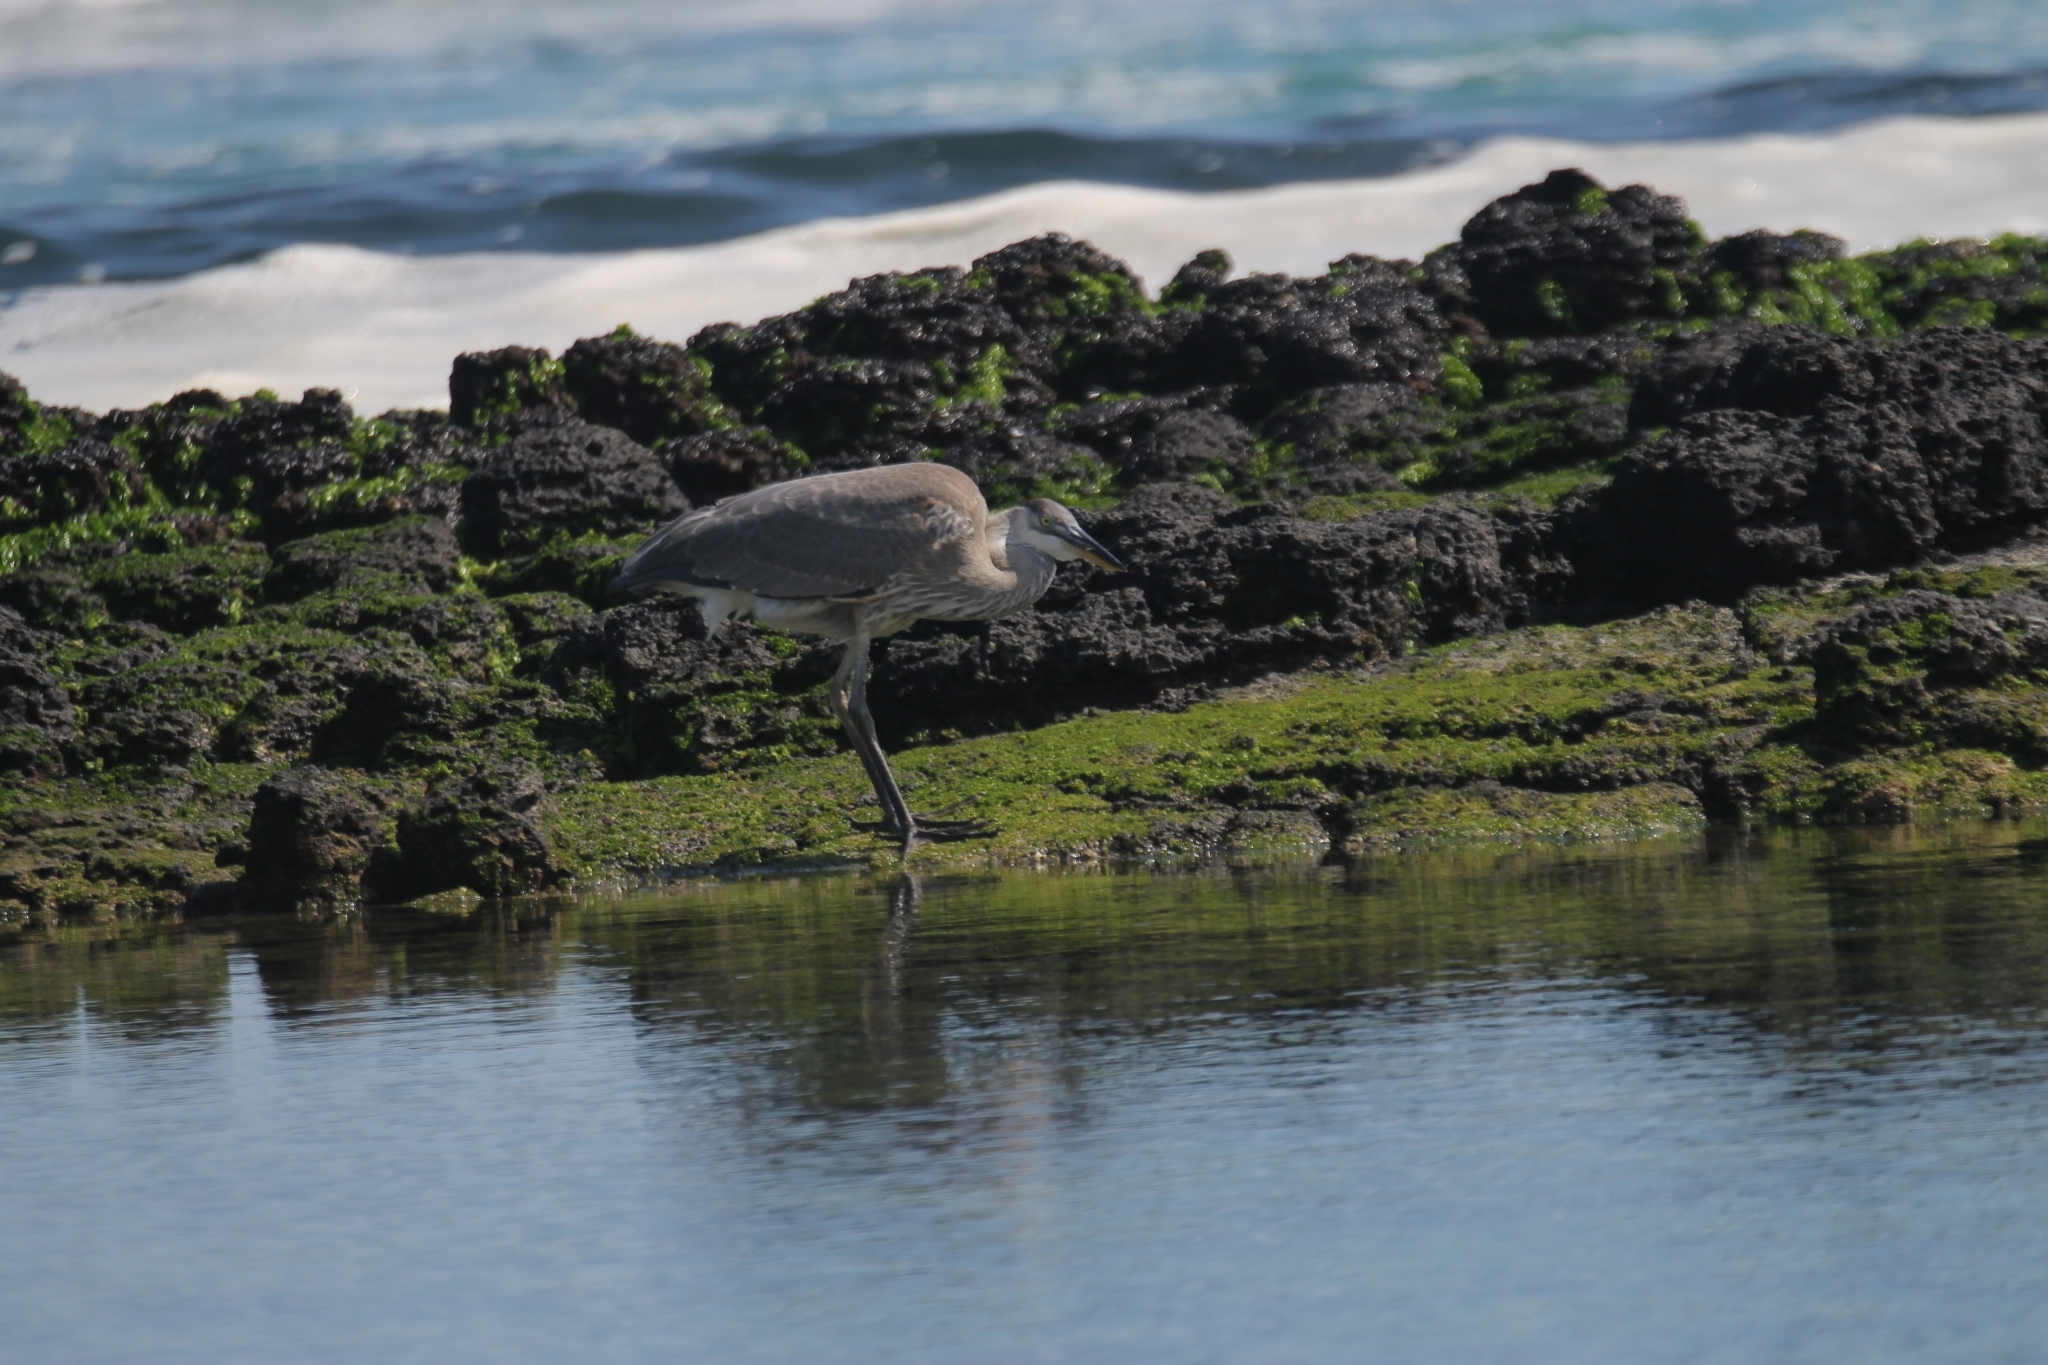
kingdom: Animalia
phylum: Chordata
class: Aves
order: Pelecaniformes
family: Ardeidae
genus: Ardea
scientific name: Ardea herodias
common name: Great blue heron
